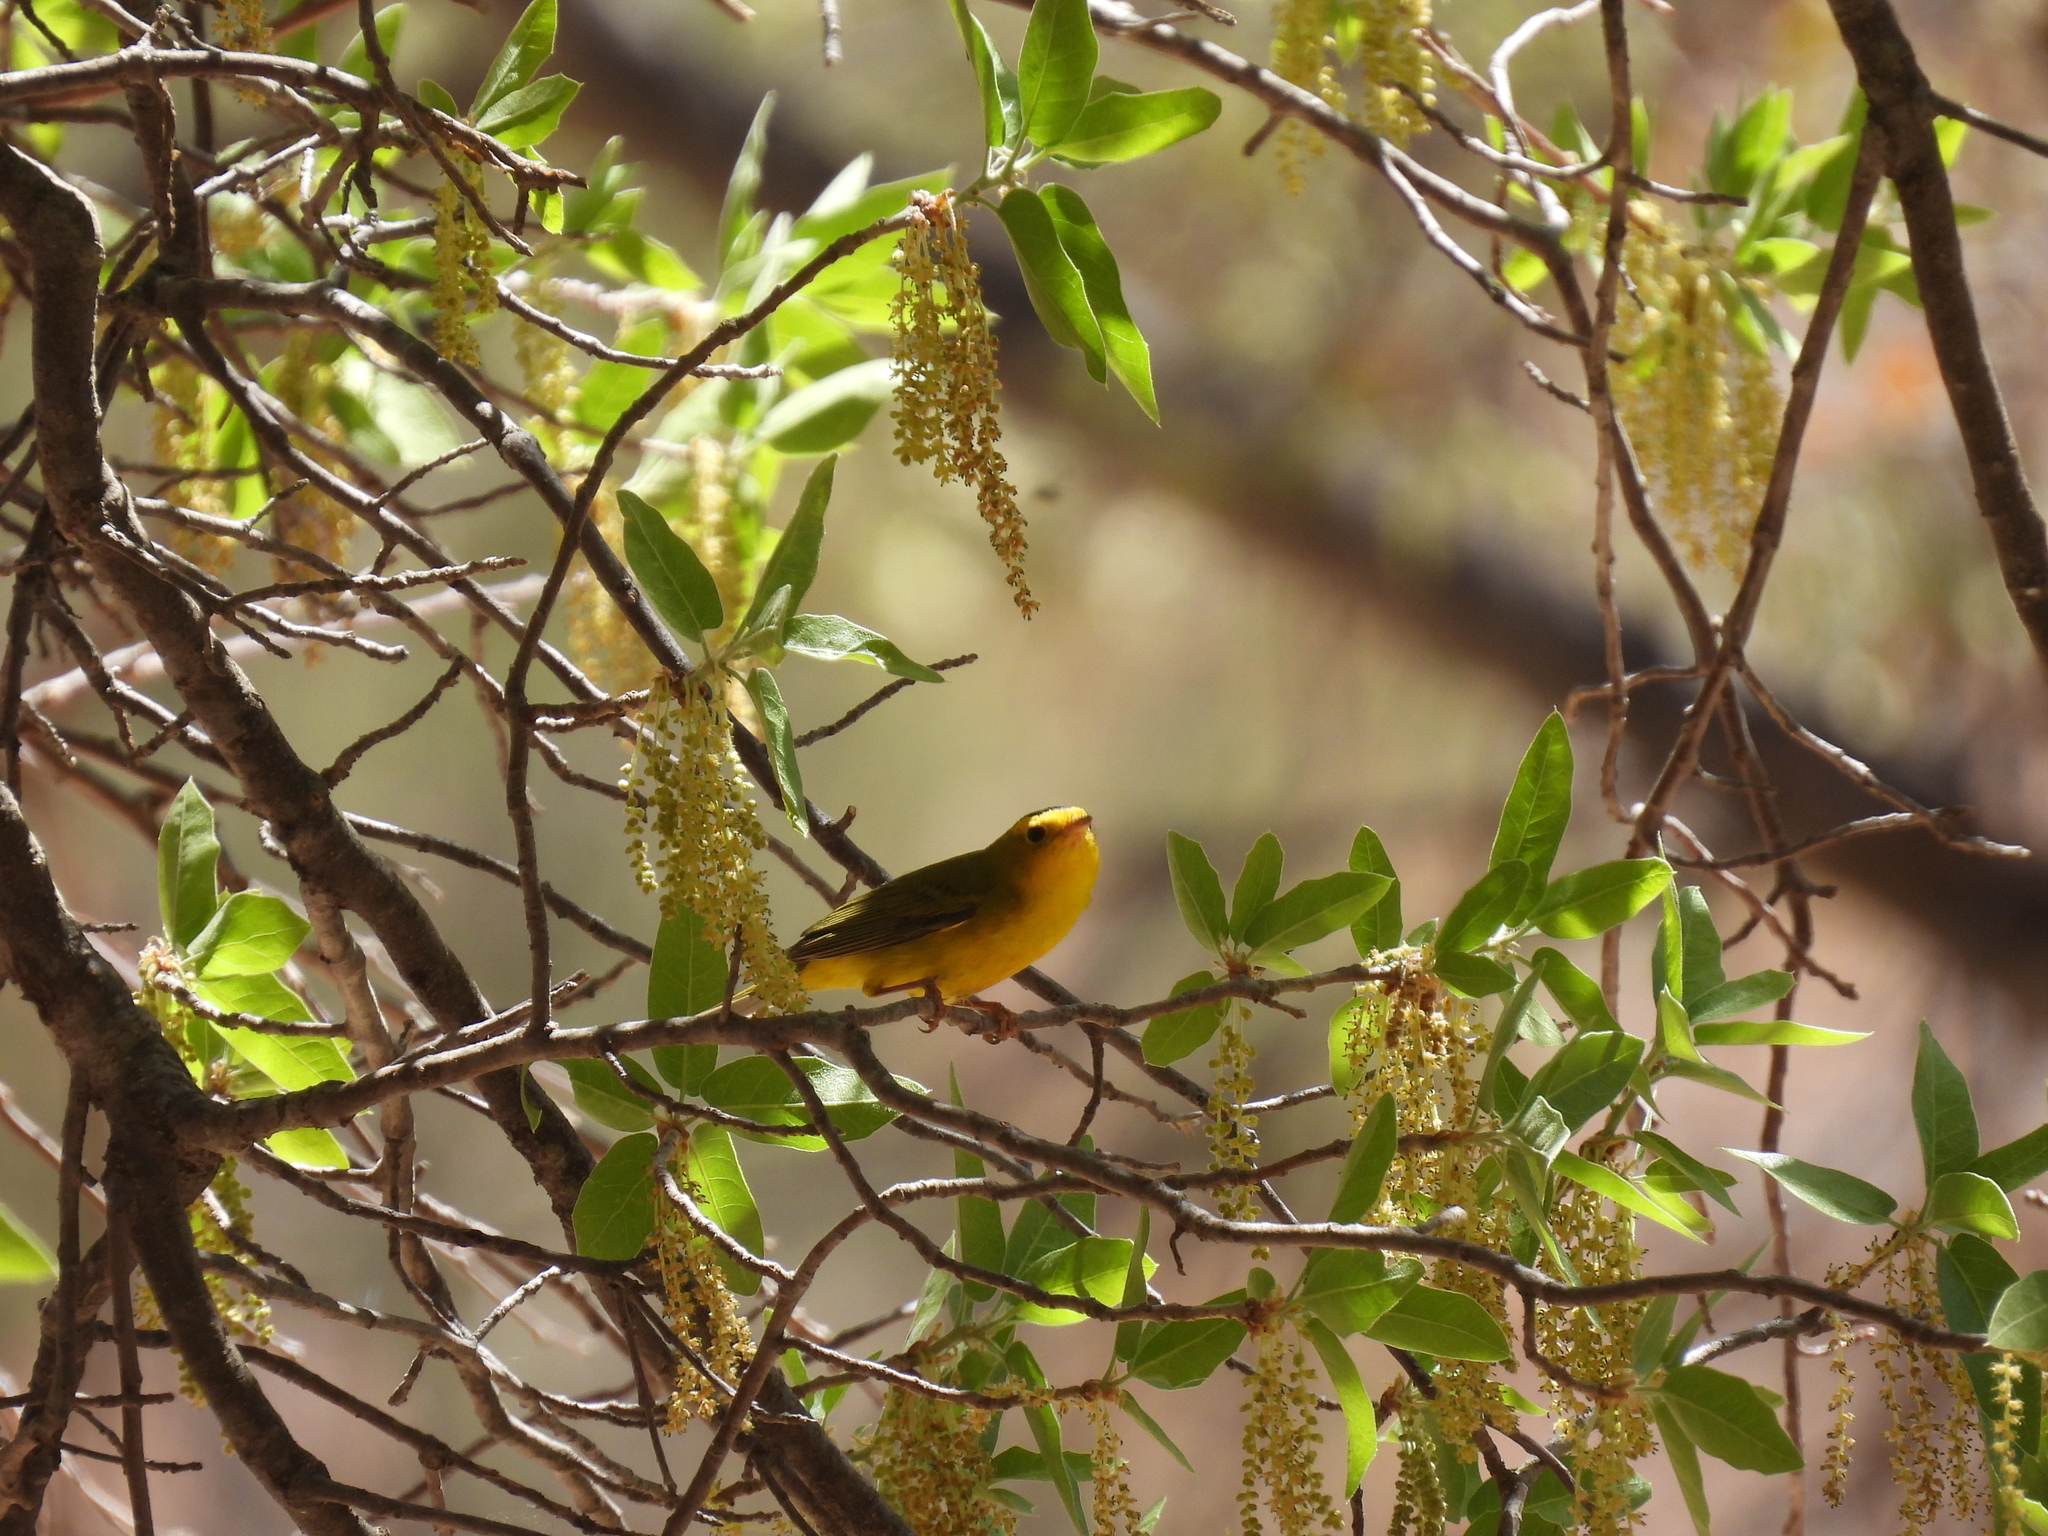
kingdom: Animalia
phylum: Chordata
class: Aves
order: Passeriformes
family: Parulidae
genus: Cardellina
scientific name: Cardellina pusilla
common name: Wilson's warbler
